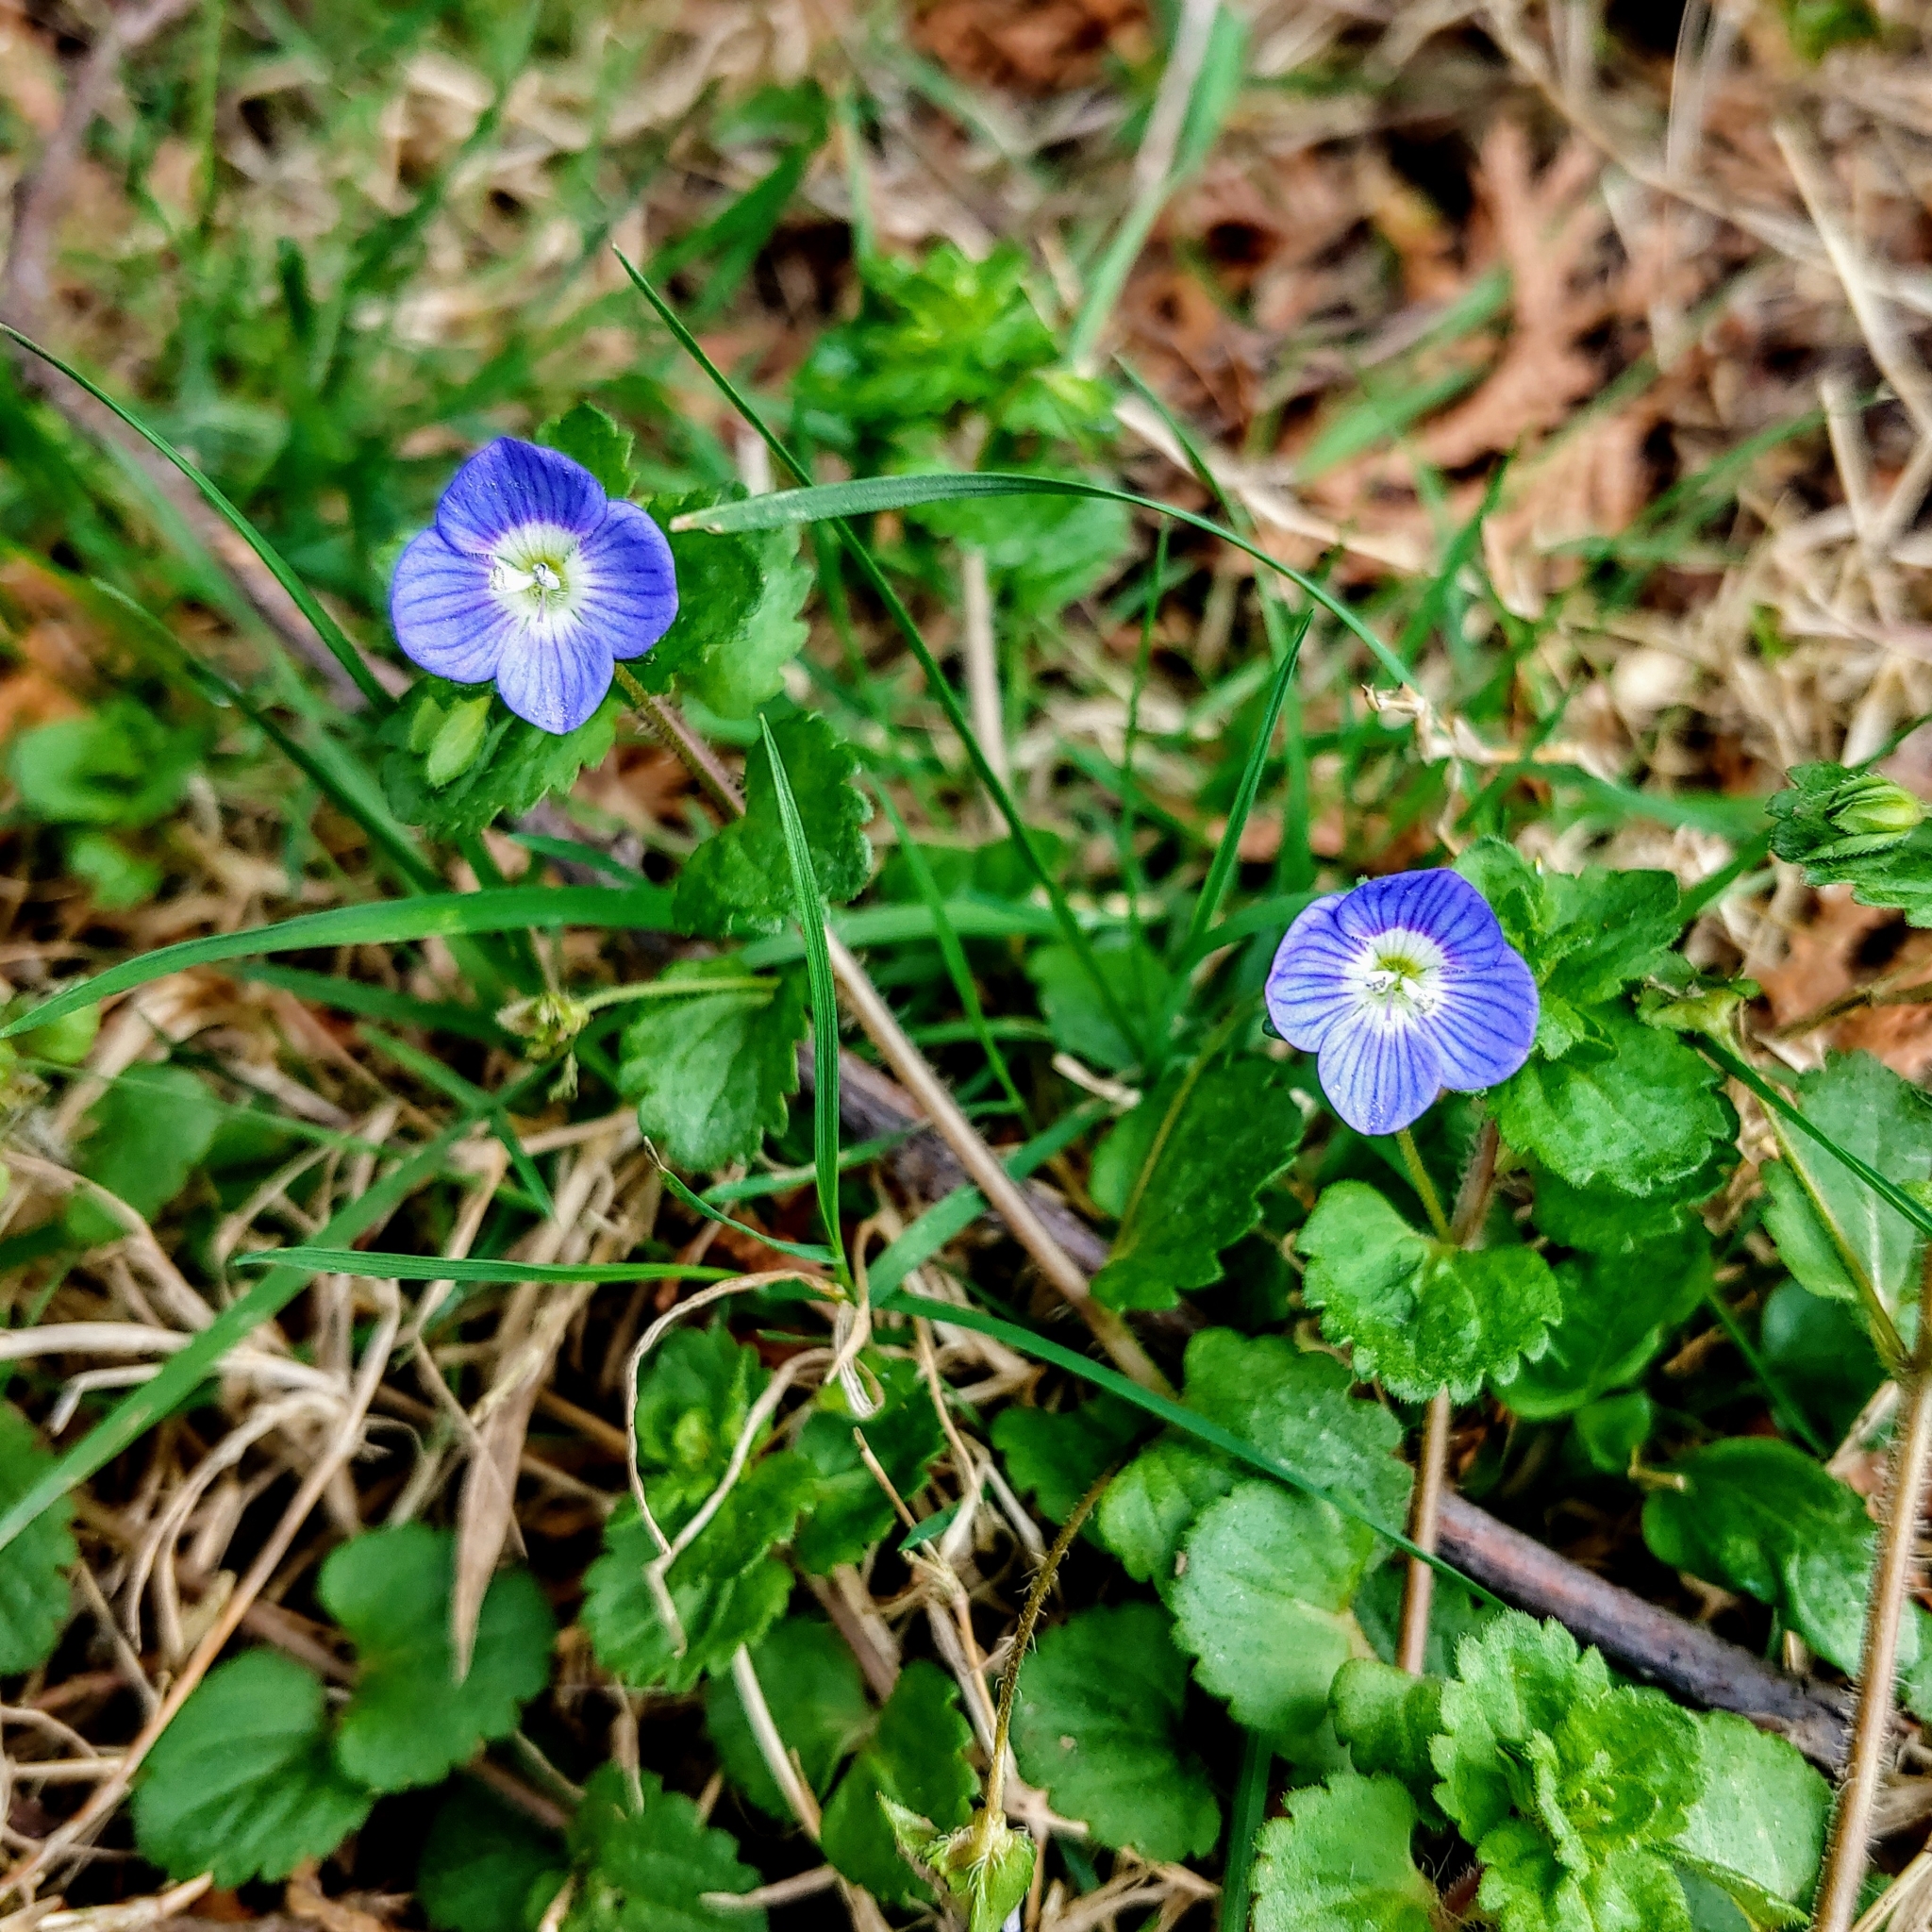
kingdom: Plantae
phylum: Tracheophyta
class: Magnoliopsida
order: Lamiales
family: Plantaginaceae
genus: Veronica
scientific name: Veronica persica
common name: Common field-speedwell
